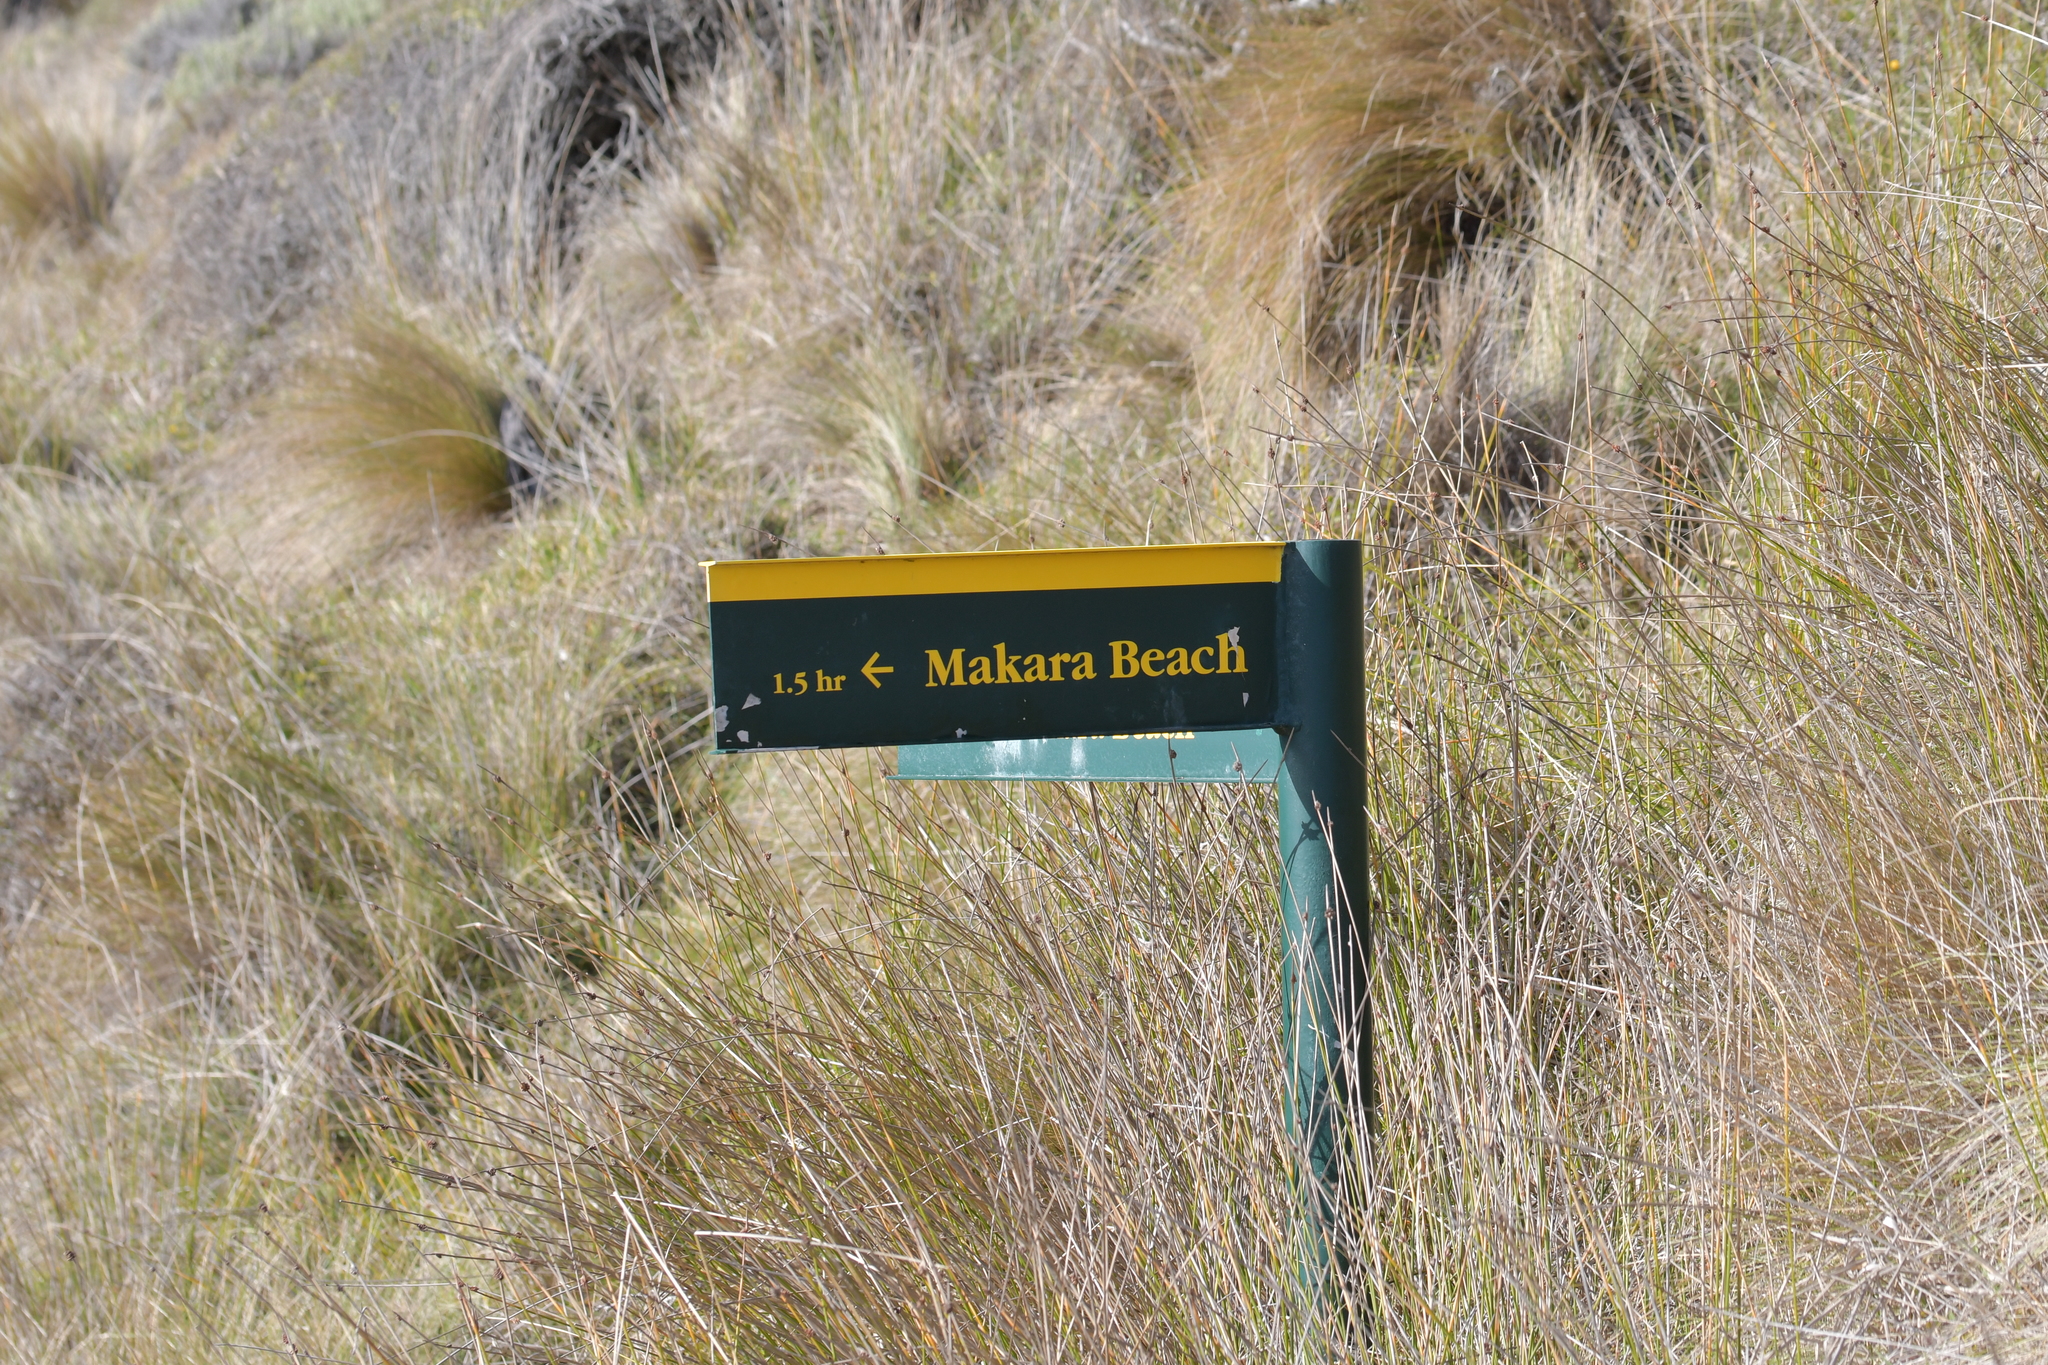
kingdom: Plantae
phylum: Tracheophyta
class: Liliopsida
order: Poales
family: Cyperaceae
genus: Ficinia
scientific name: Ficinia nodosa
